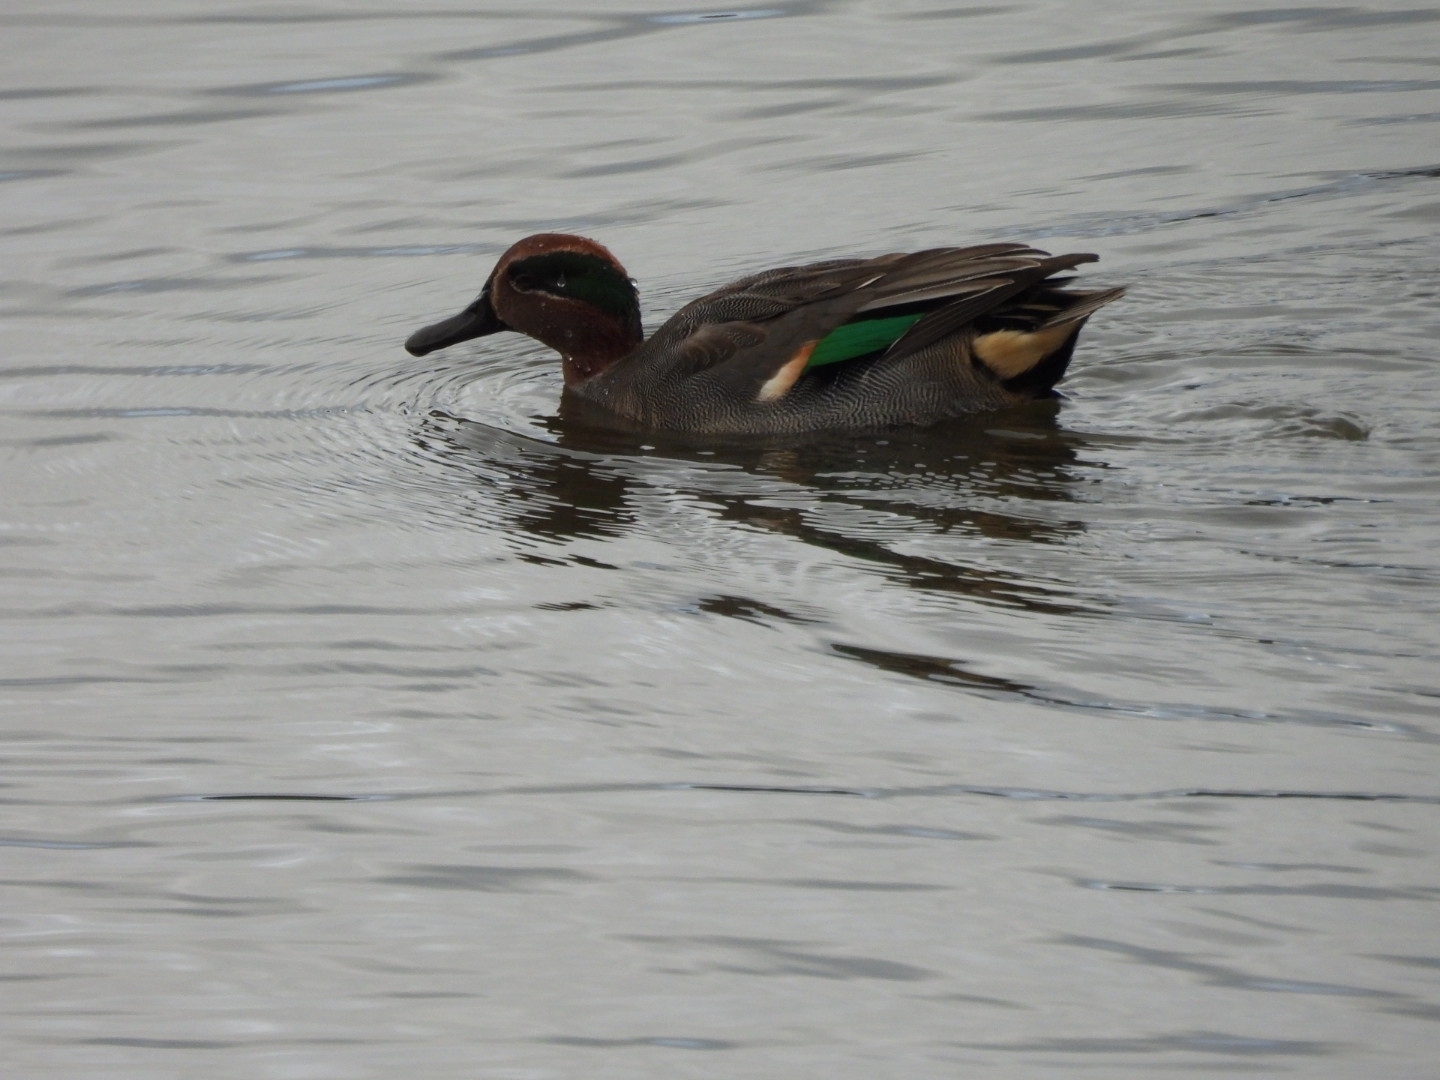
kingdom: Animalia
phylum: Chordata
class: Aves
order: Anseriformes
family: Anatidae
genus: Anas
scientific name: Anas crecca
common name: Eurasian teal
